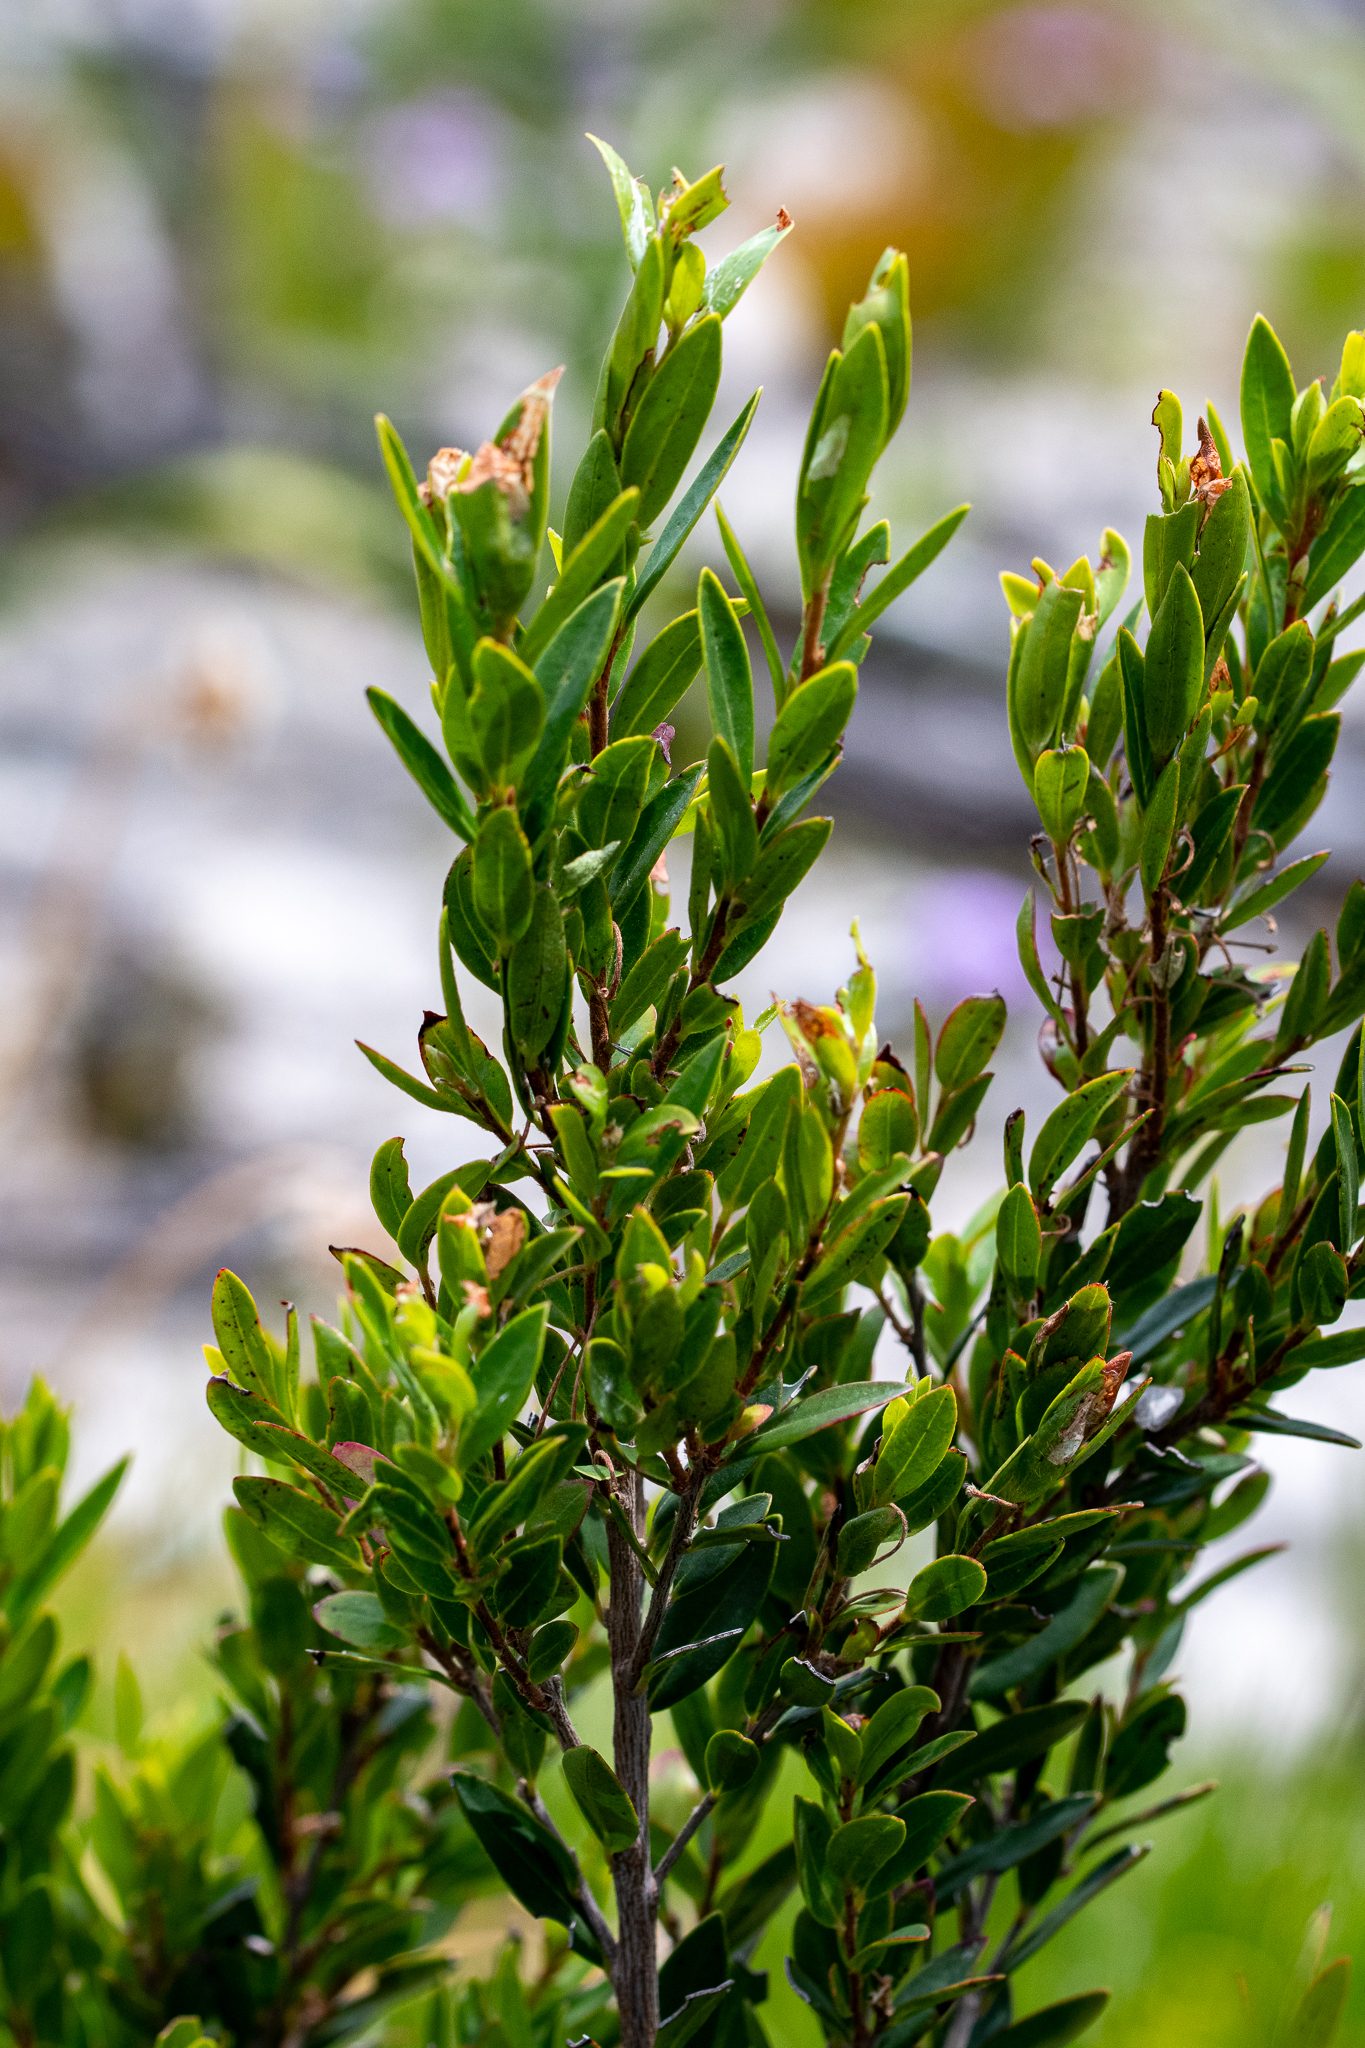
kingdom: Plantae
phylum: Tracheophyta
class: Magnoliopsida
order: Ericales
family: Ebenaceae
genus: Diospyros
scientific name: Diospyros glabra
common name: Fynbos star apple
